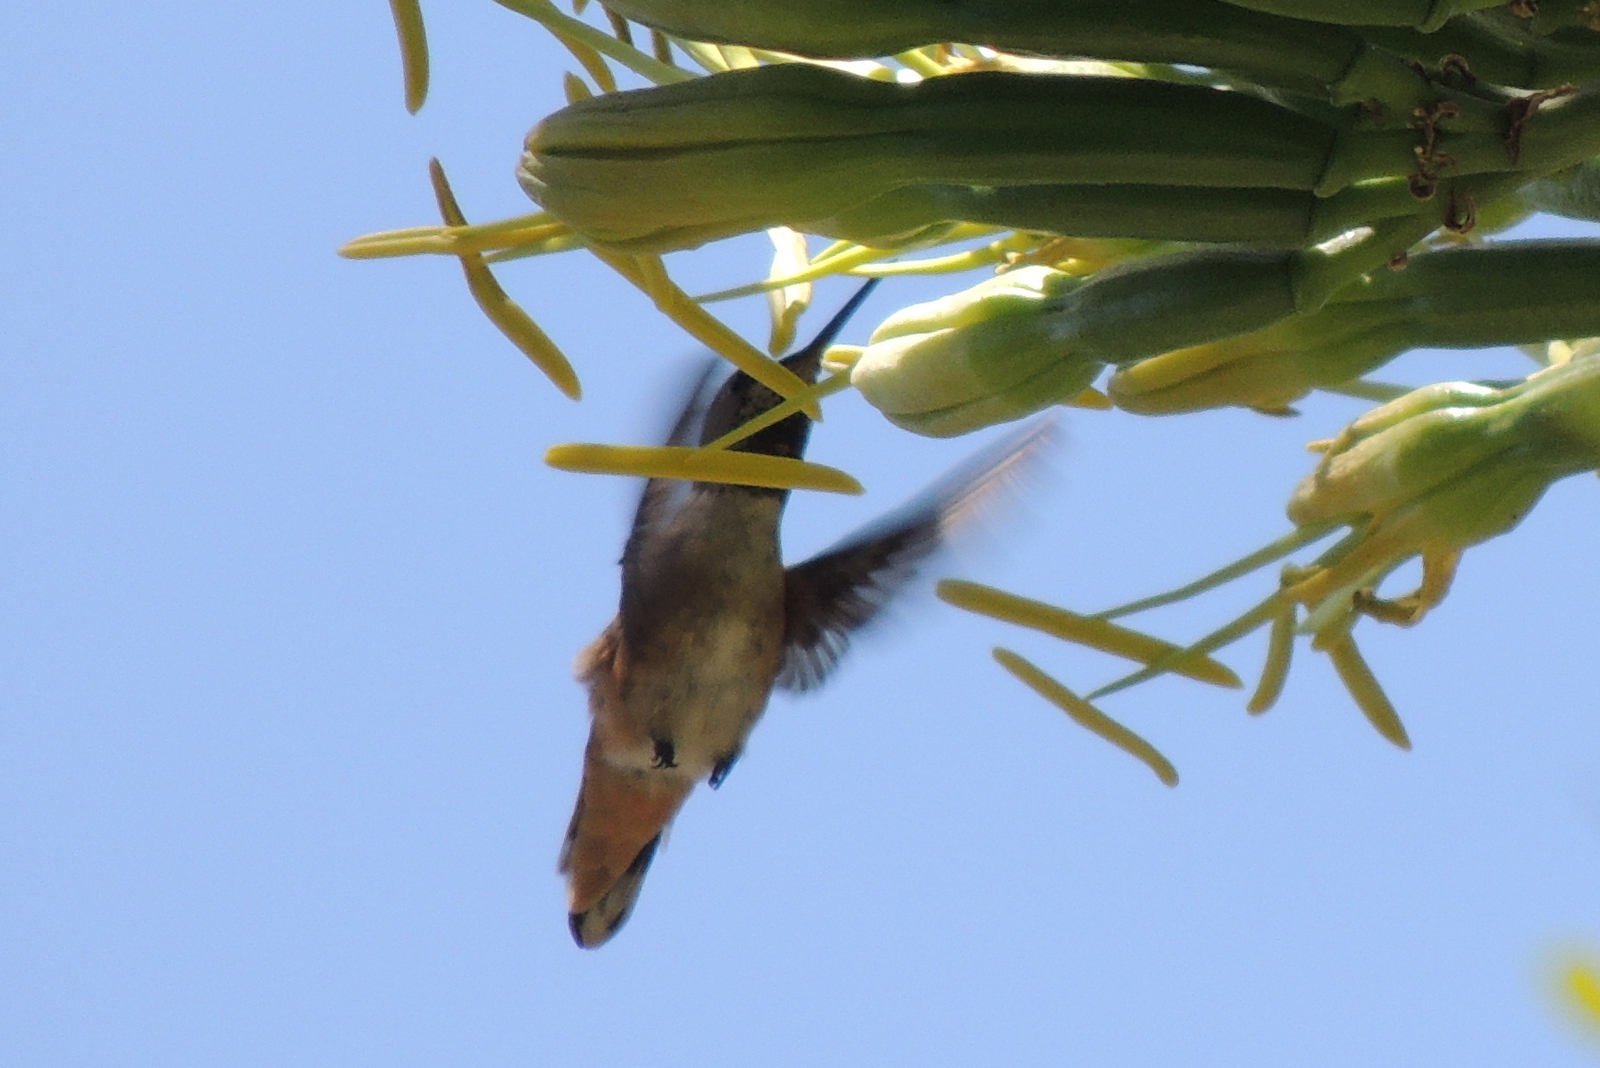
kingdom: Animalia
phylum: Chordata
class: Aves
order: Apodiformes
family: Trochilidae
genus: Selasphorus
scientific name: Selasphorus
